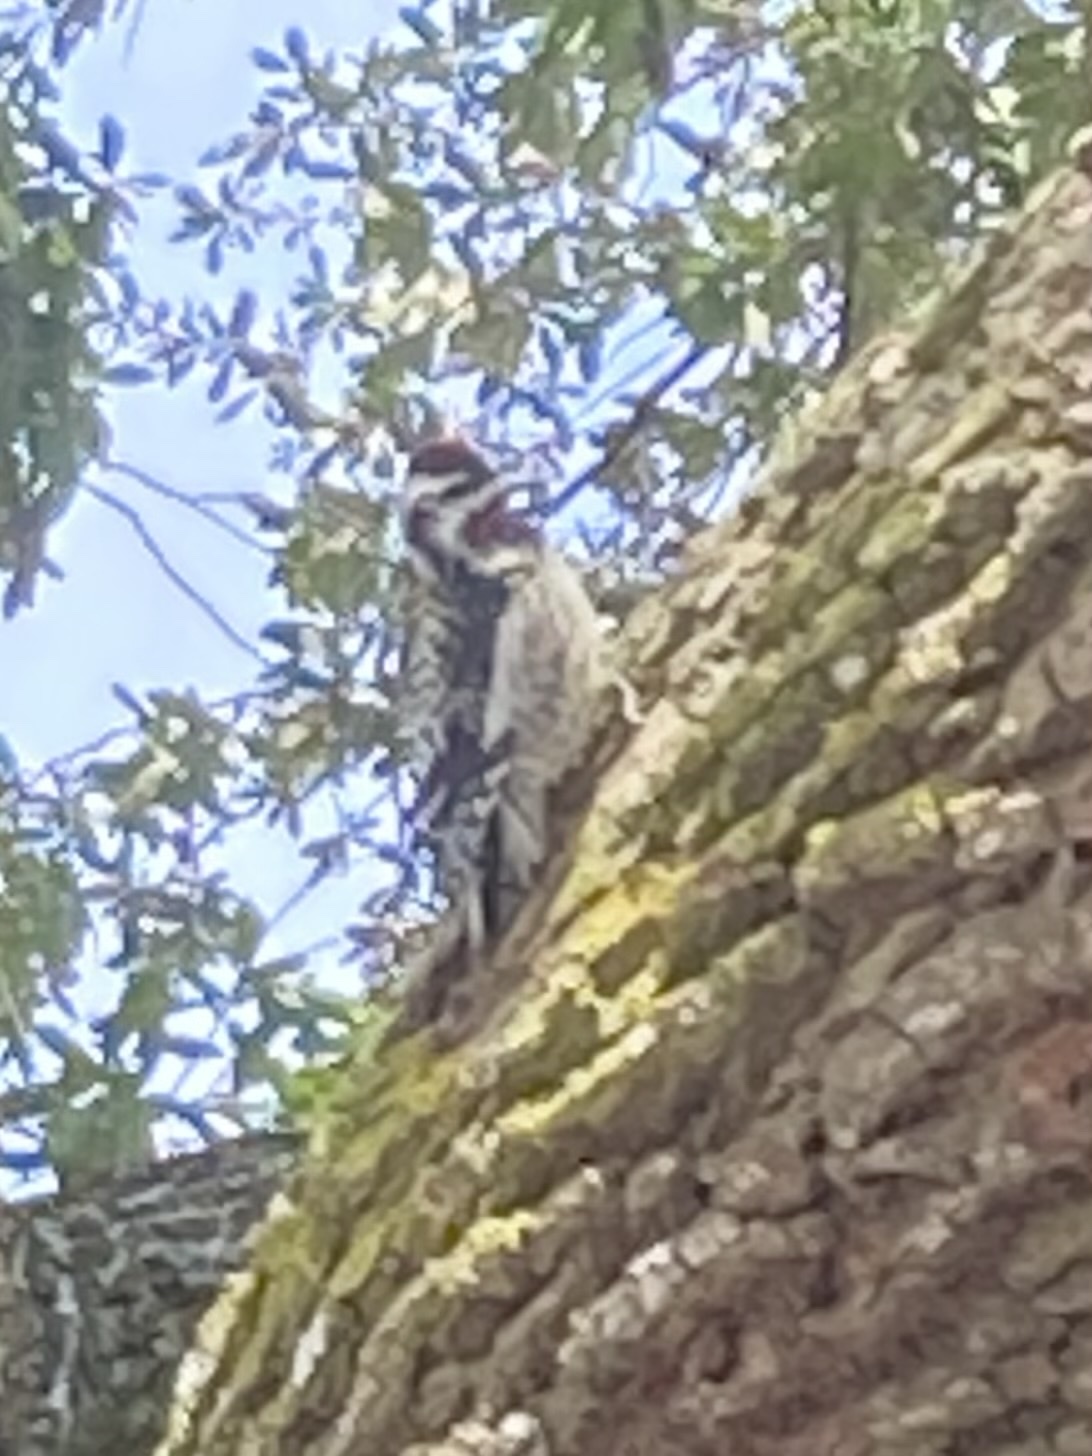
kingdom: Animalia
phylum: Chordata
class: Aves
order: Piciformes
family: Picidae
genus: Sphyrapicus
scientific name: Sphyrapicus varius
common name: Yellow-bellied sapsucker
